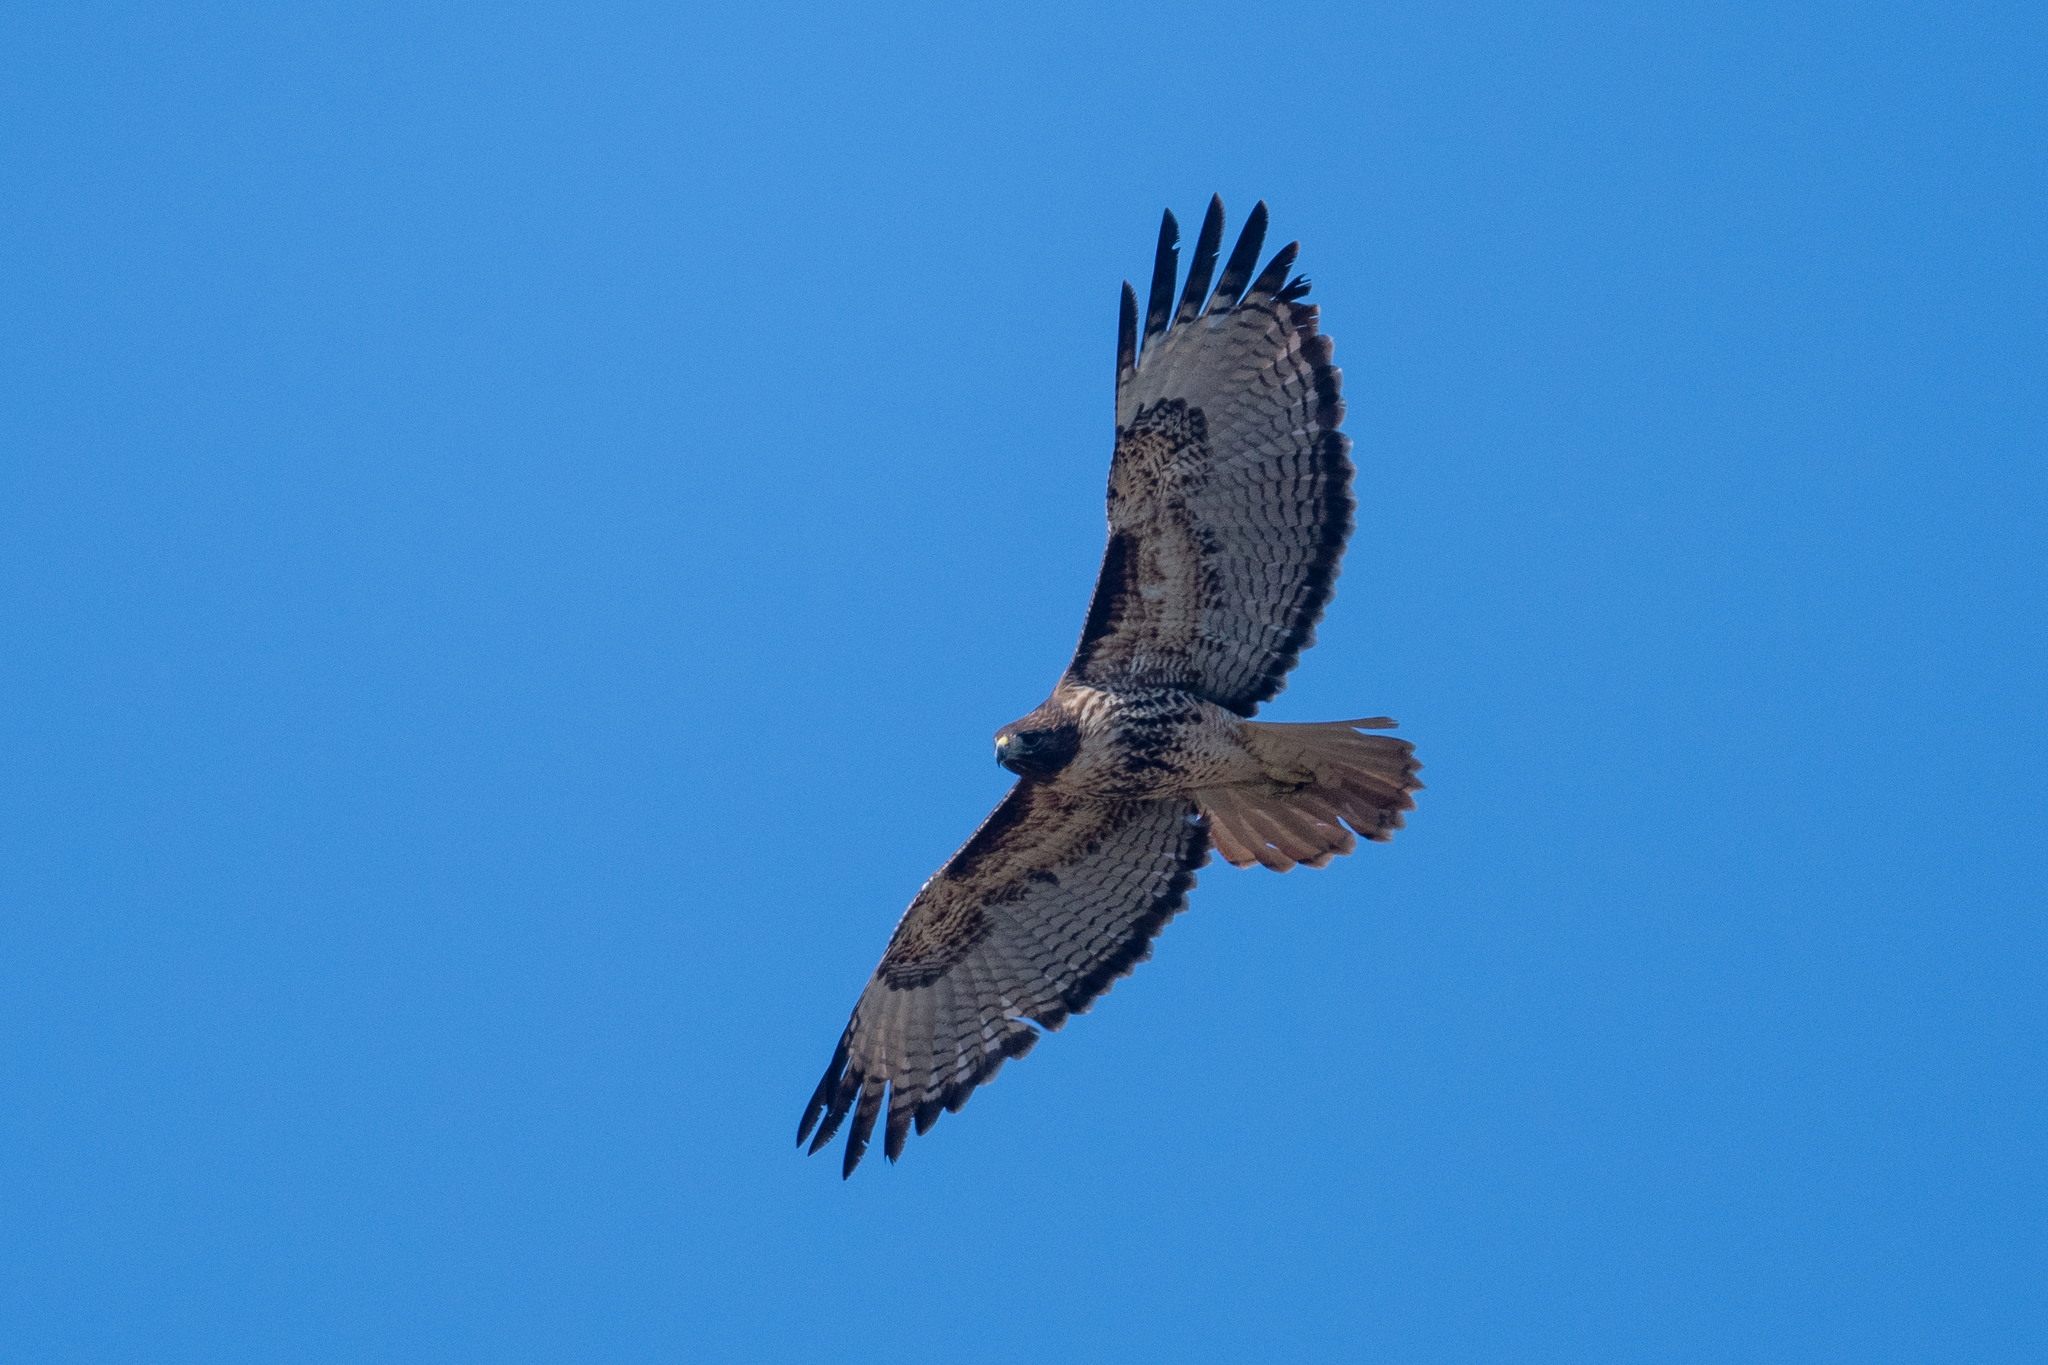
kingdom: Animalia
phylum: Chordata
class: Aves
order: Accipitriformes
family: Accipitridae
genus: Buteo
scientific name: Buteo jamaicensis
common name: Red-tailed hawk
